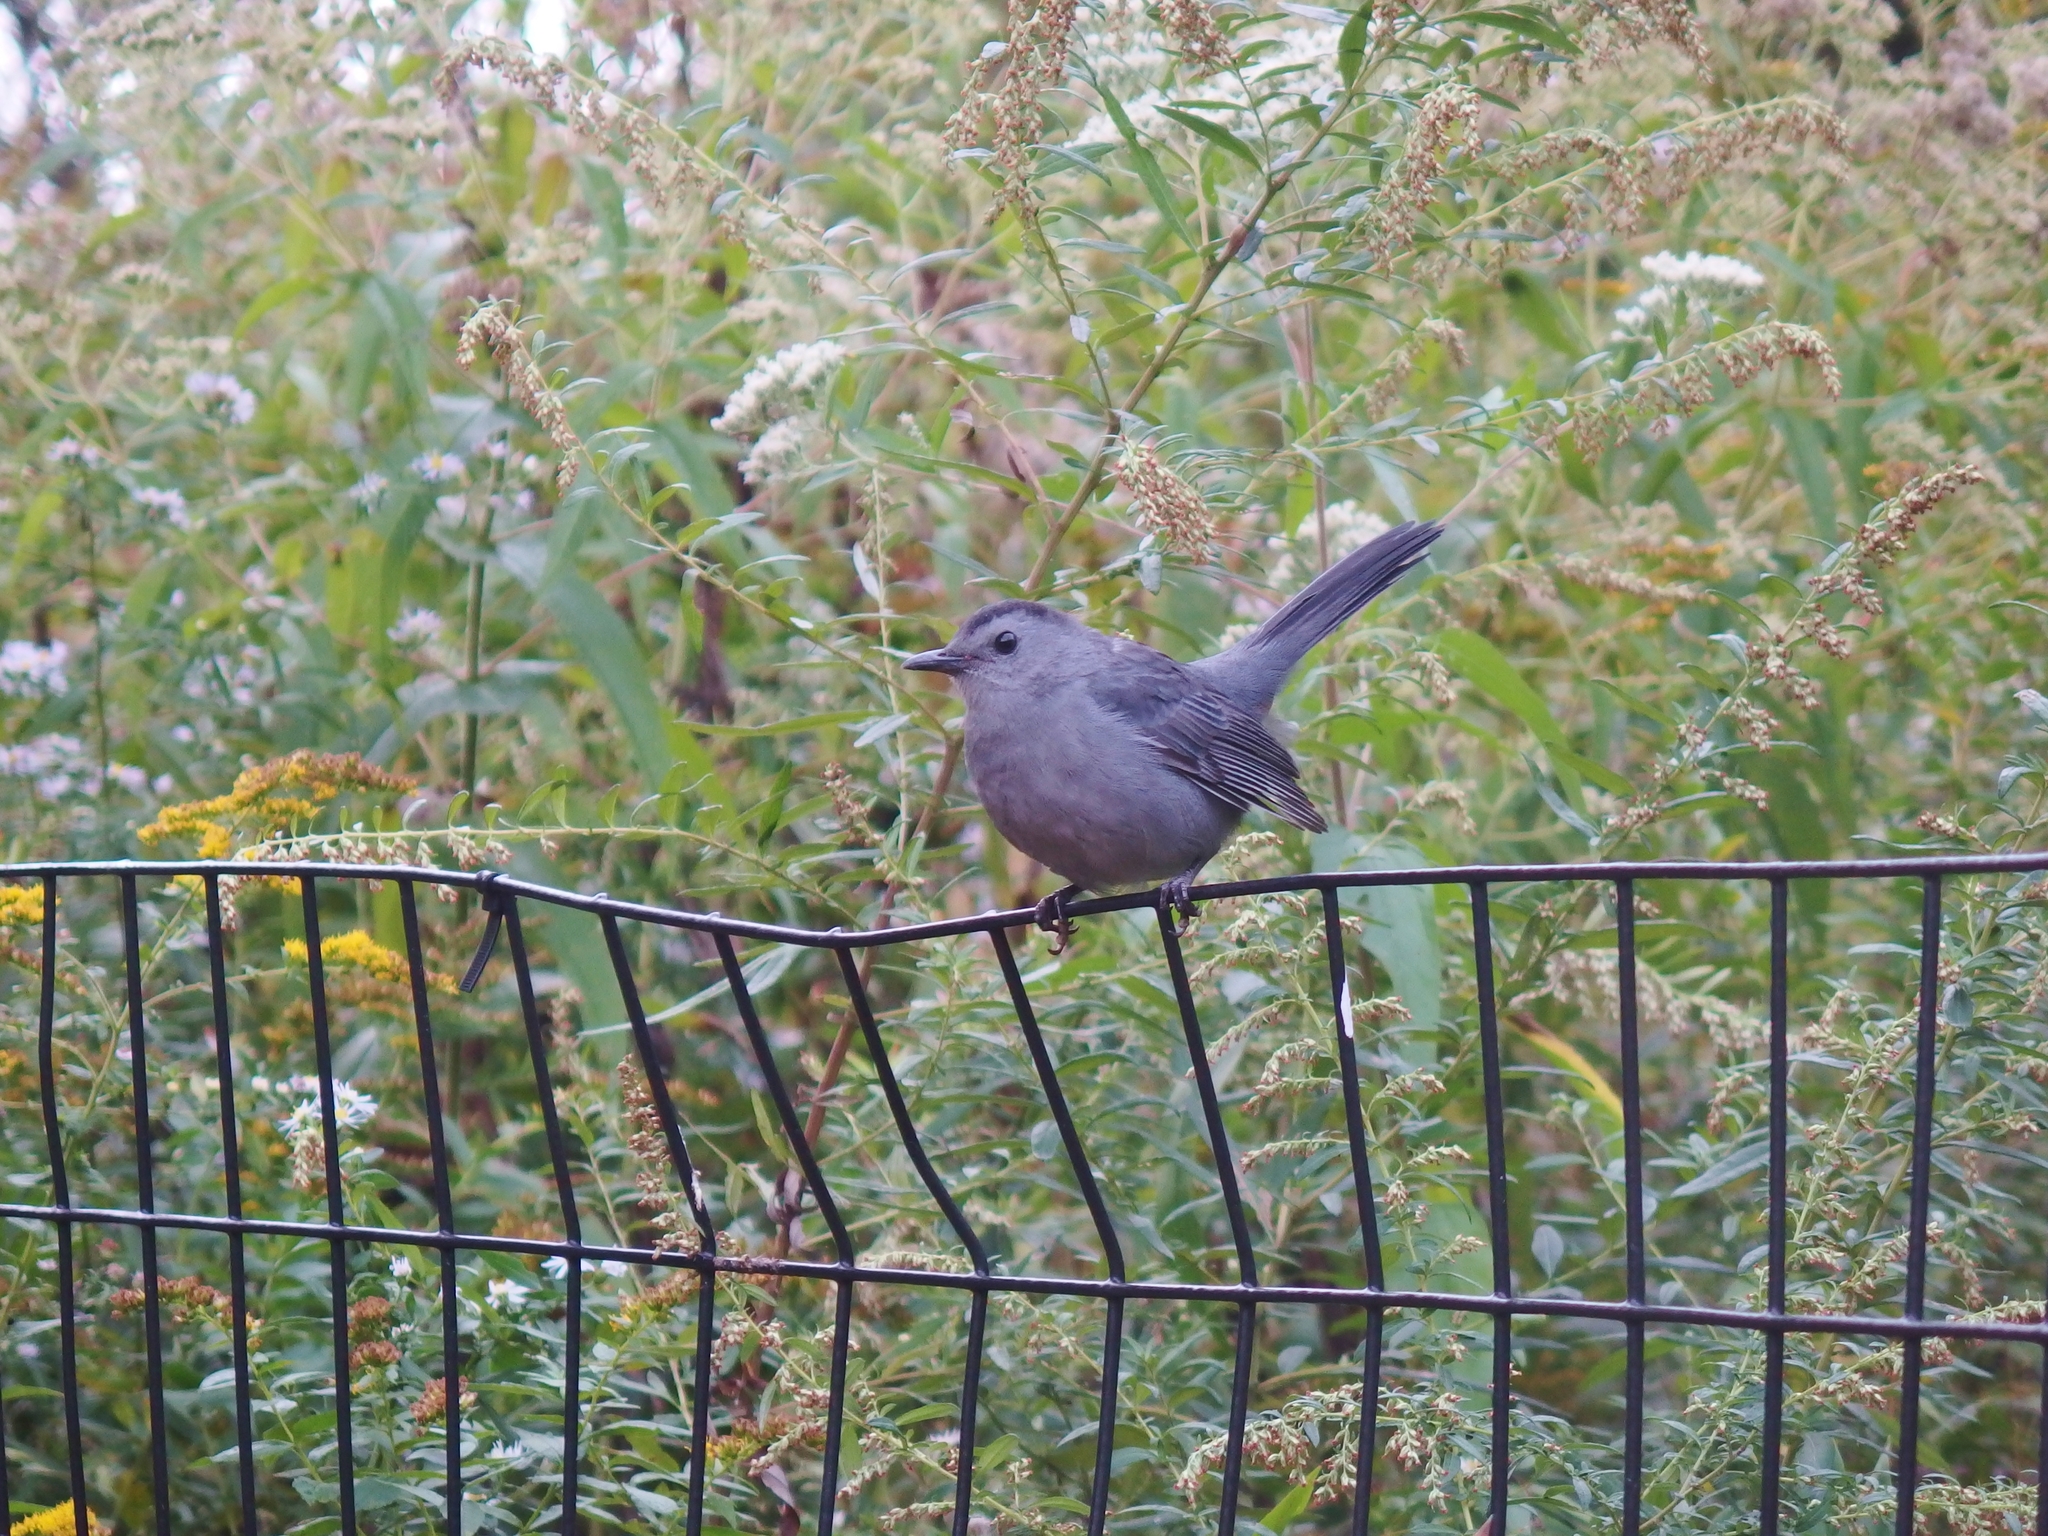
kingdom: Animalia
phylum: Chordata
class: Aves
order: Passeriformes
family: Mimidae
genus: Dumetella
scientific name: Dumetella carolinensis
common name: Gray catbird
